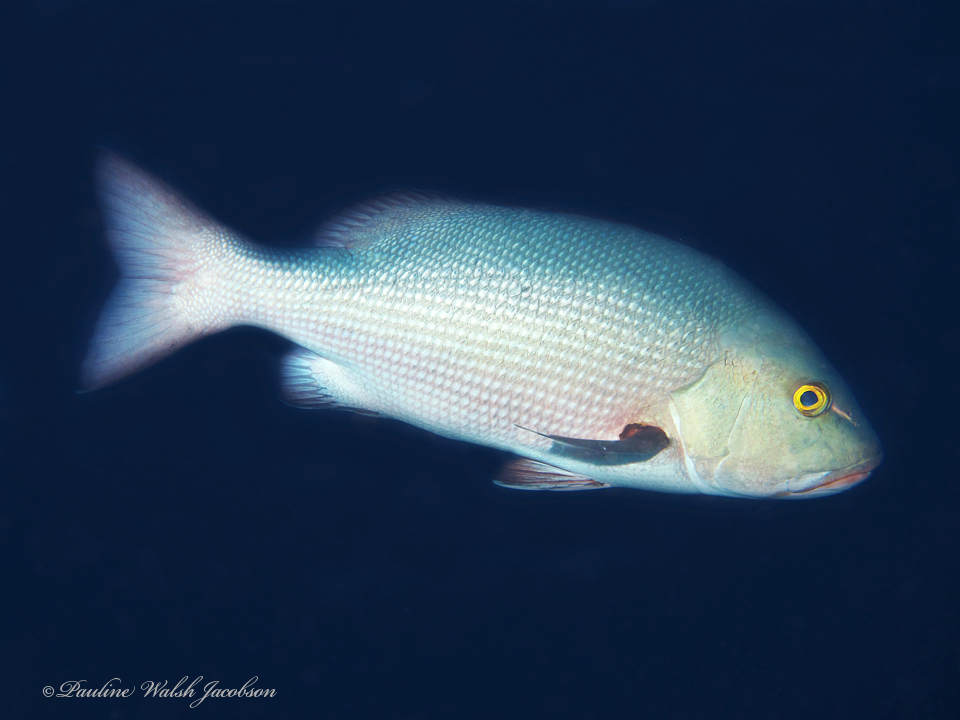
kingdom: Animalia
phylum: Chordata
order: Perciformes
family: Lutjanidae
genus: Lutjanus
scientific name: Lutjanus bohar
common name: Red bass
